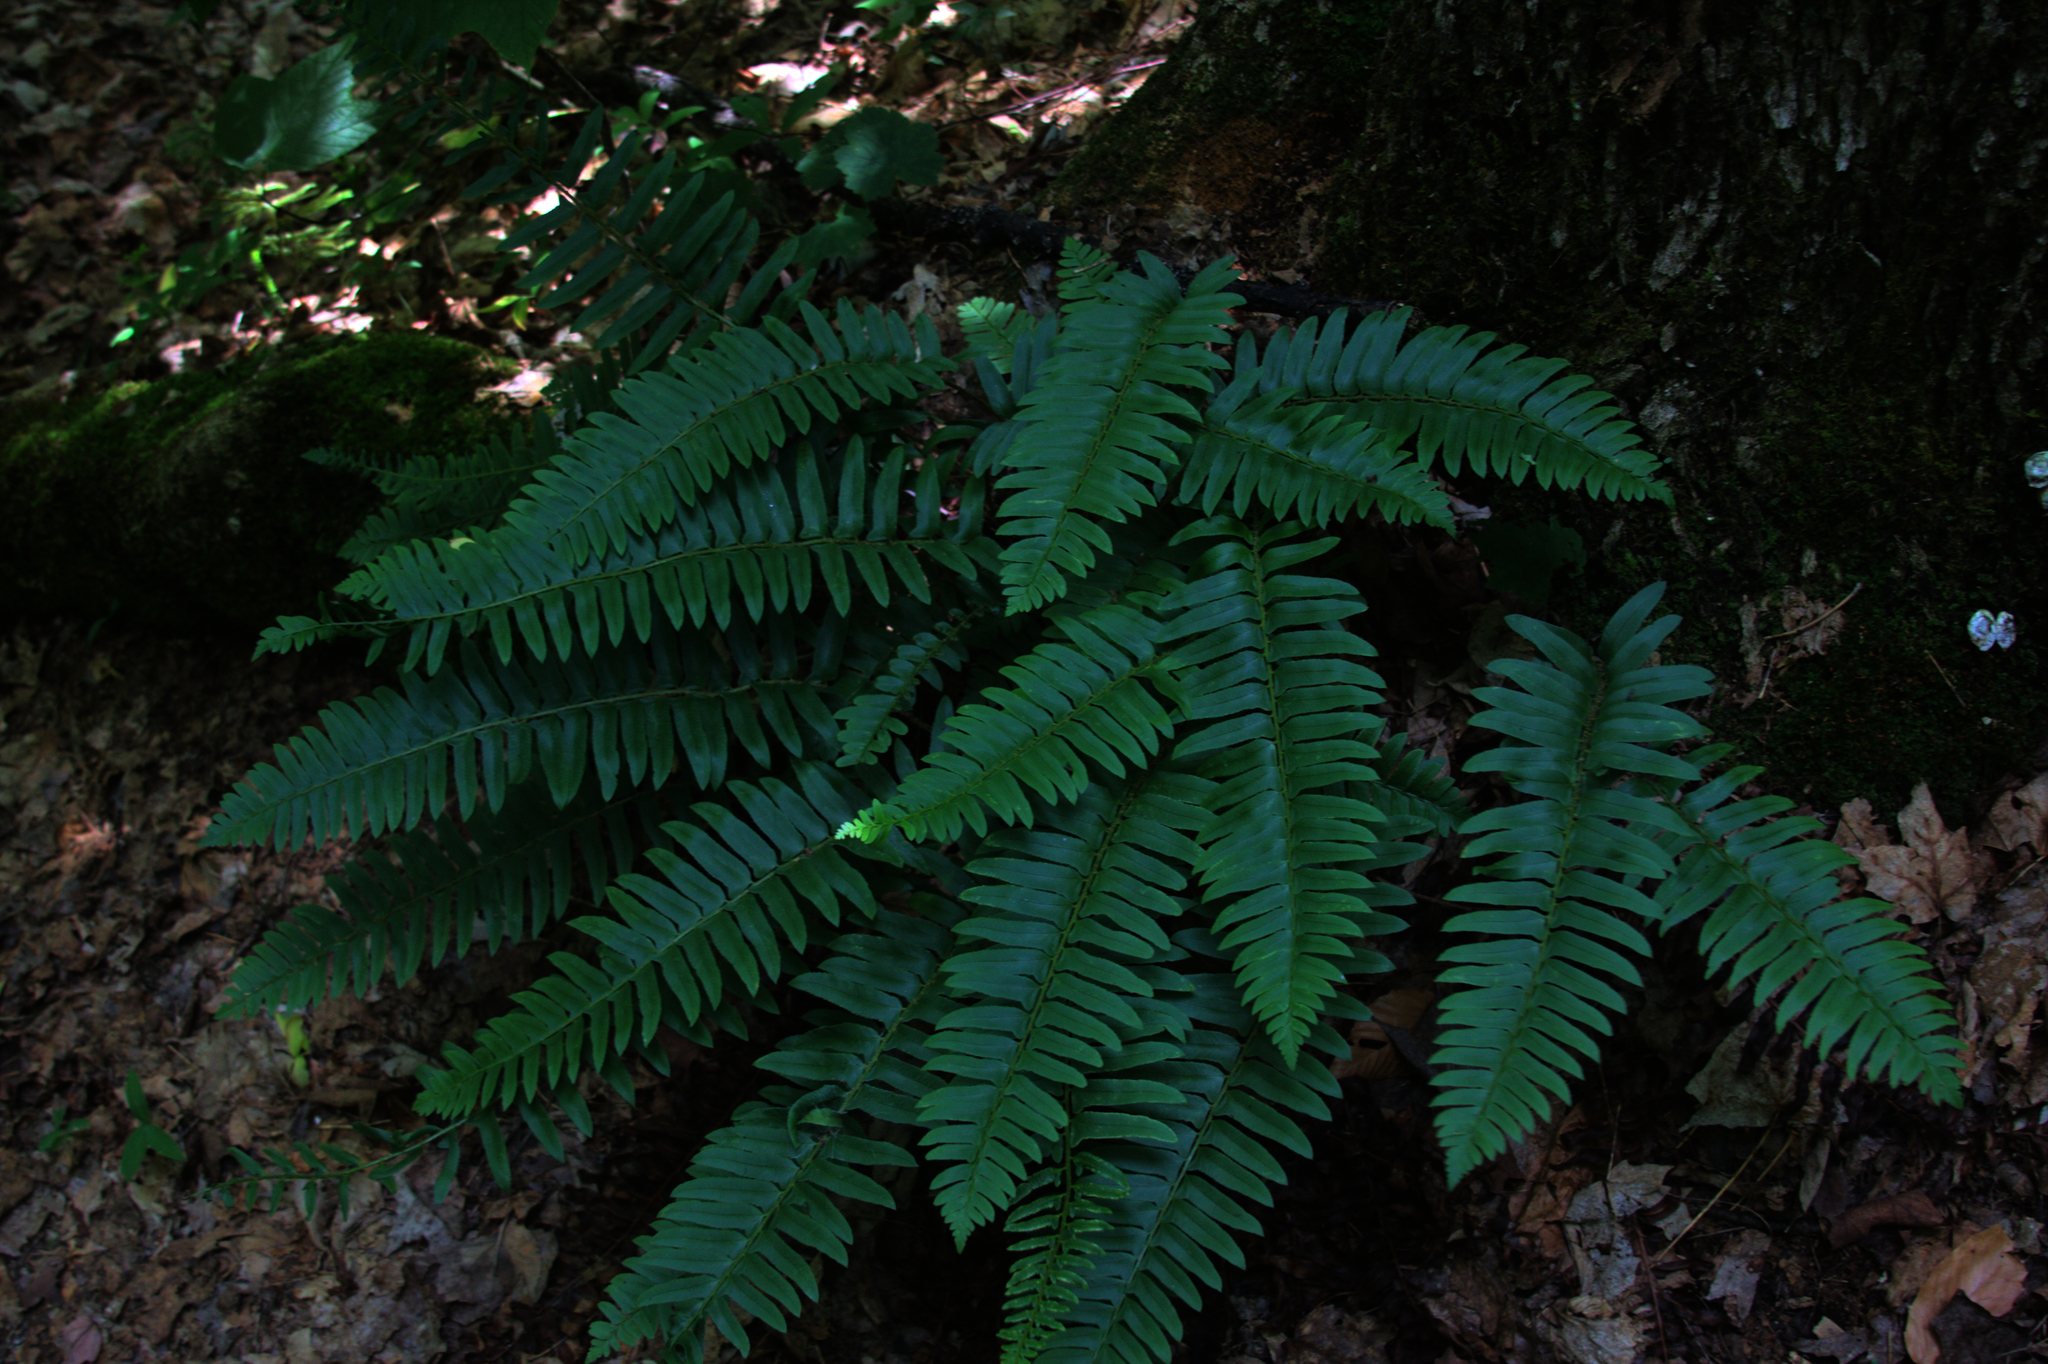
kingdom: Plantae
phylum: Tracheophyta
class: Polypodiopsida
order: Polypodiales
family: Dryopteridaceae
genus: Polystichum
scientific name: Polystichum acrostichoides
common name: Christmas fern
